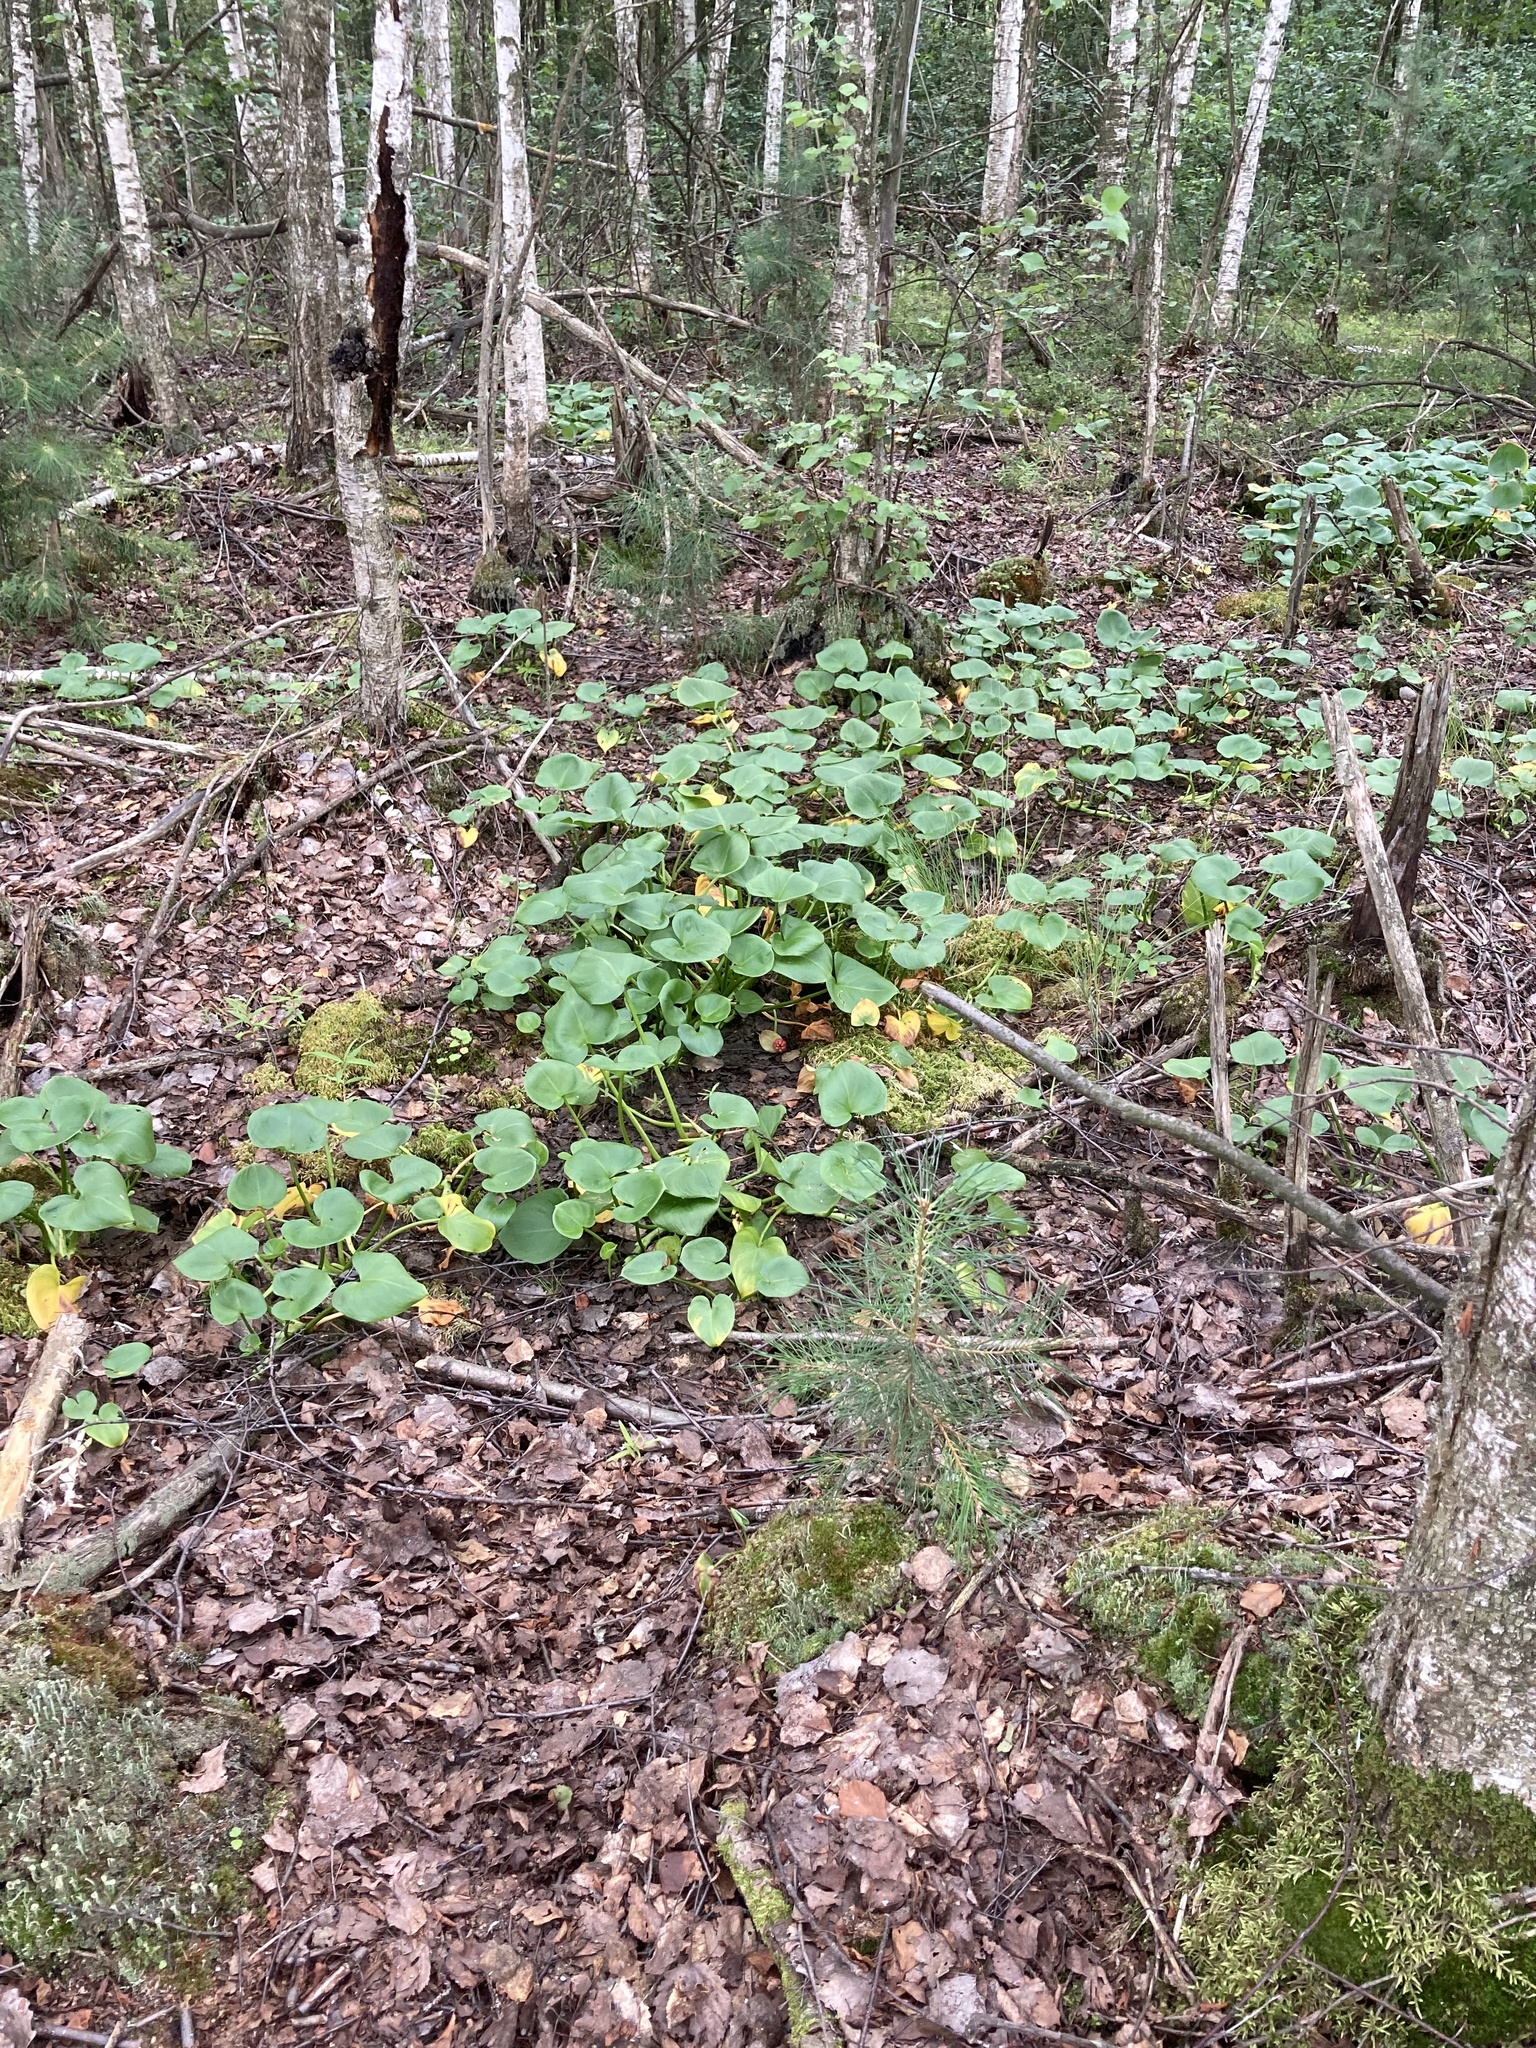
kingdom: Plantae
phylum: Tracheophyta
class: Liliopsida
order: Alismatales
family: Araceae
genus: Calla
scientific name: Calla palustris
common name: Bog arum
